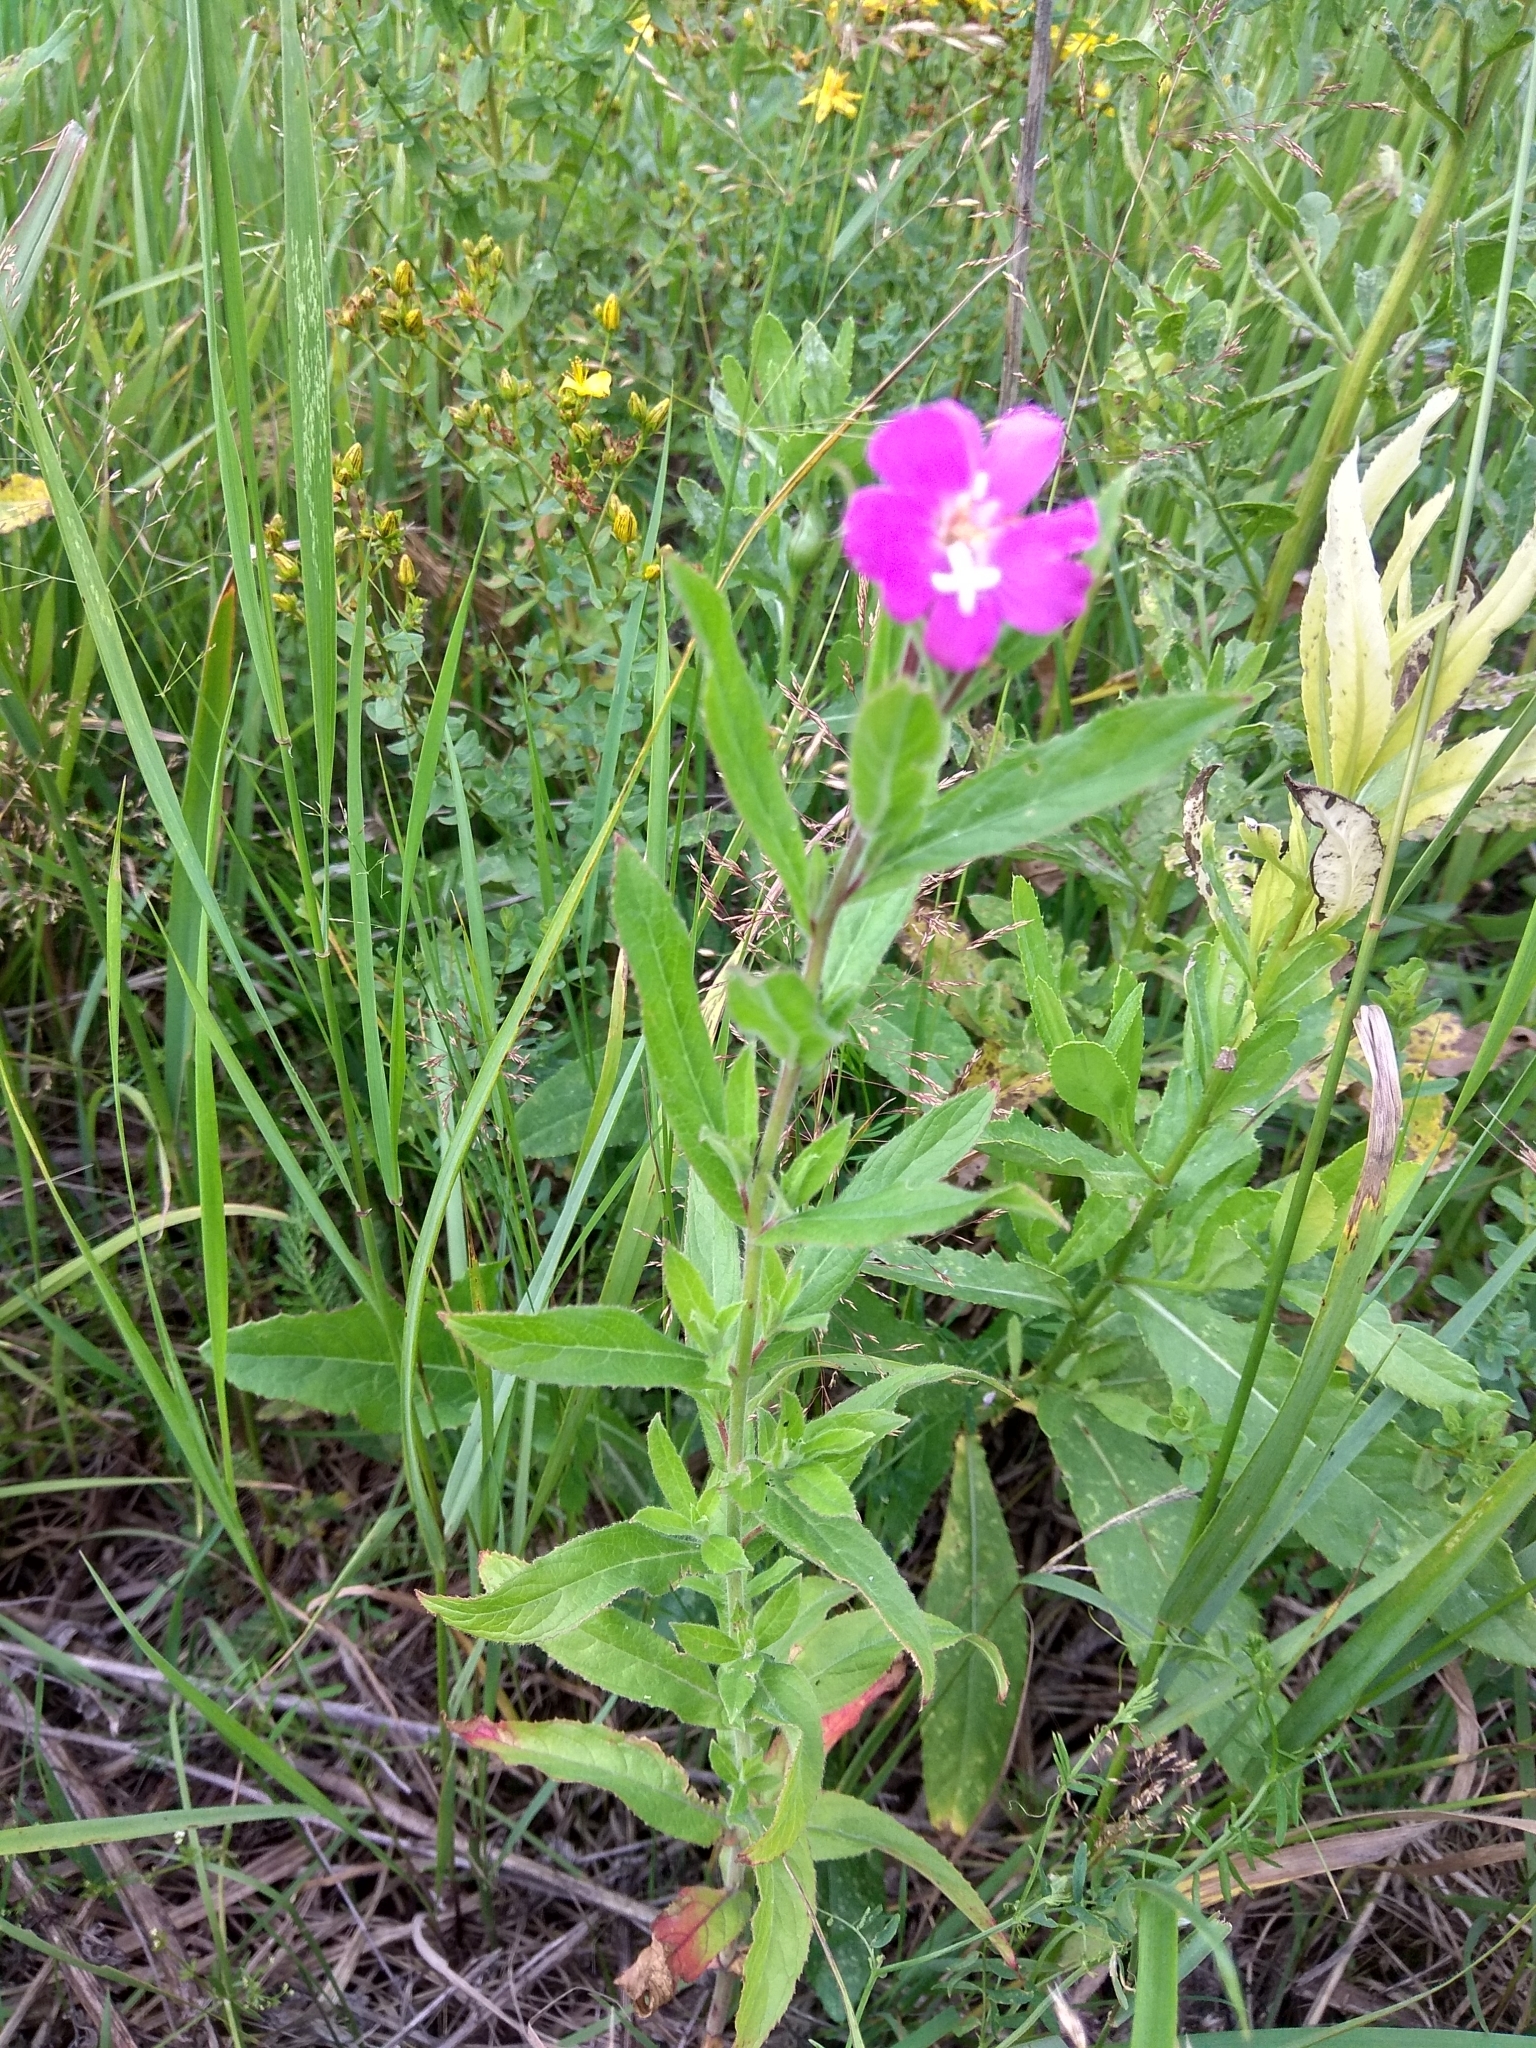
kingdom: Plantae
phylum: Tracheophyta
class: Magnoliopsida
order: Myrtales
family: Onagraceae
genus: Epilobium
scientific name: Epilobium hirsutum
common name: Great willowherb
